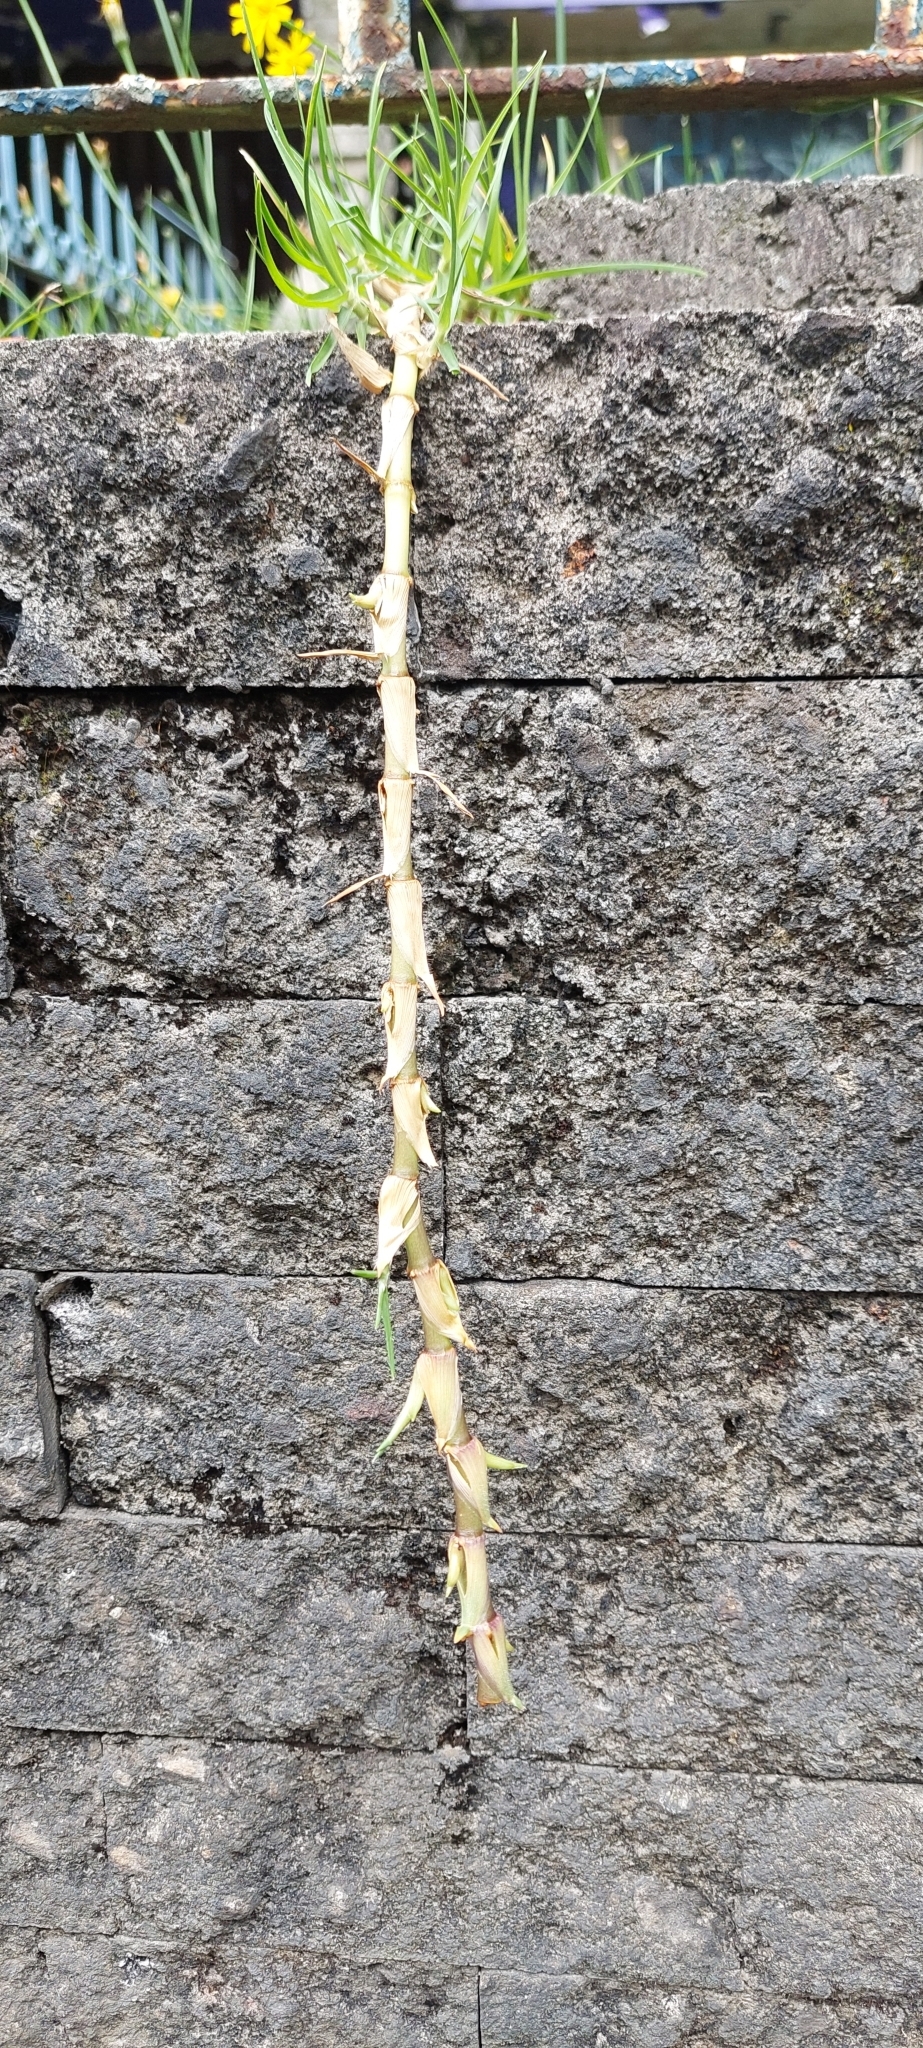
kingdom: Plantae
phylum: Tracheophyta
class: Liliopsida
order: Poales
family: Poaceae
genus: Cenchrus
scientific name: Cenchrus clandestinus
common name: Kikuyugrass
